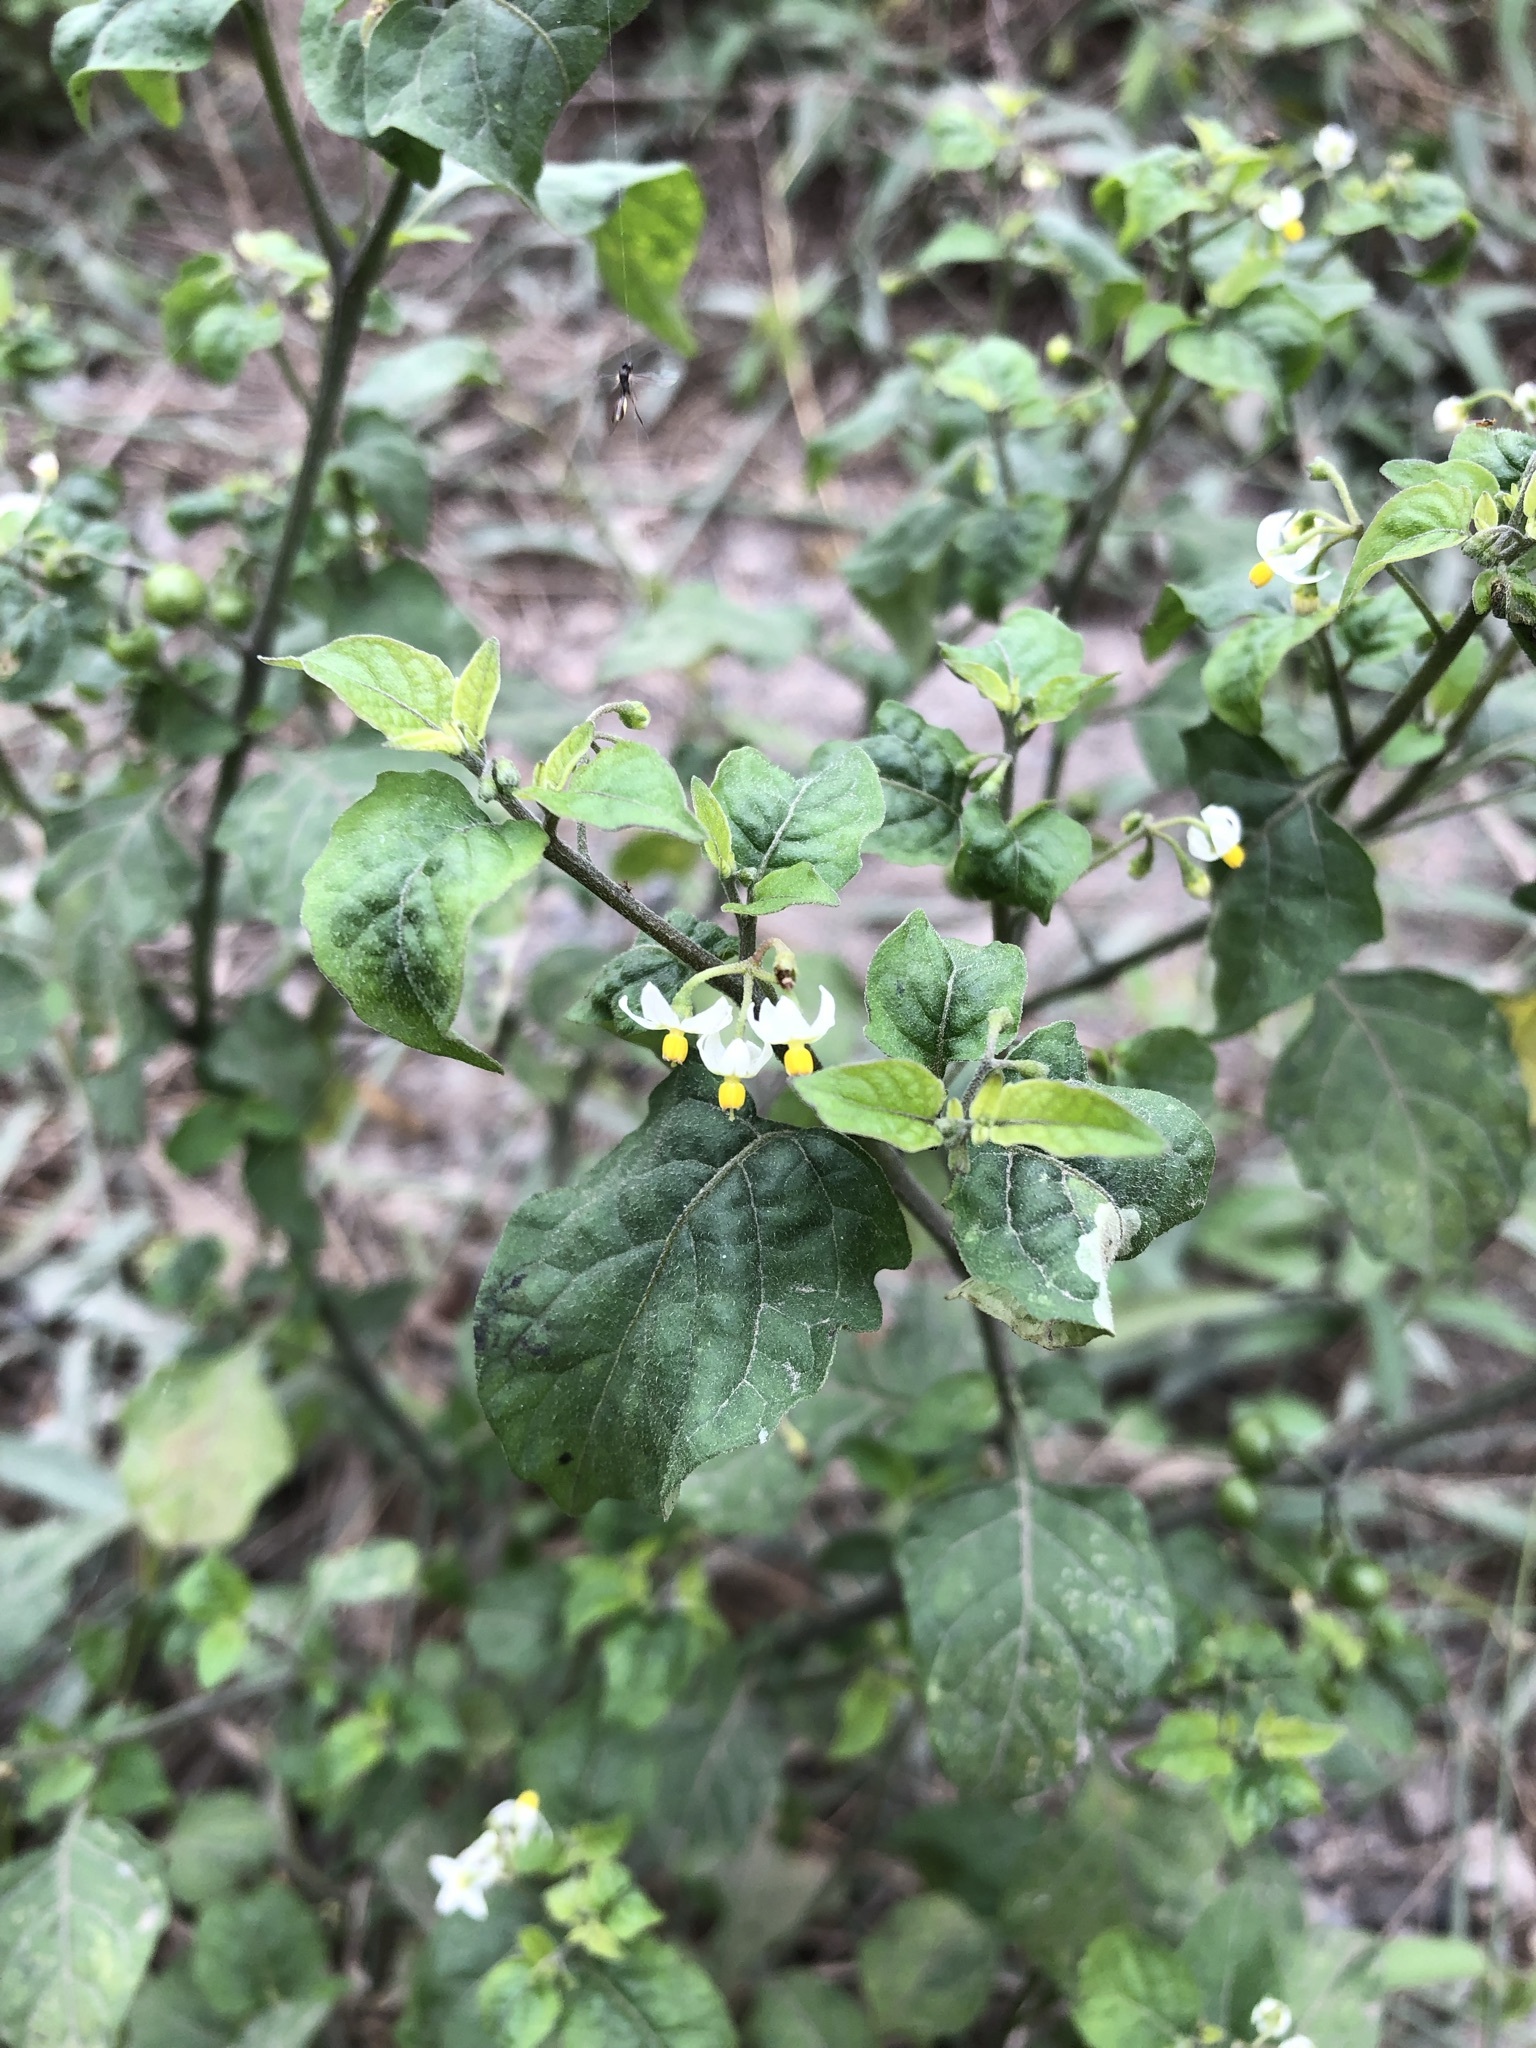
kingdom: Plantae
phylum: Tracheophyta
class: Magnoliopsida
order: Solanales
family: Solanaceae
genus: Solanum
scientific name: Solanum americanum
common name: American black nightshade
